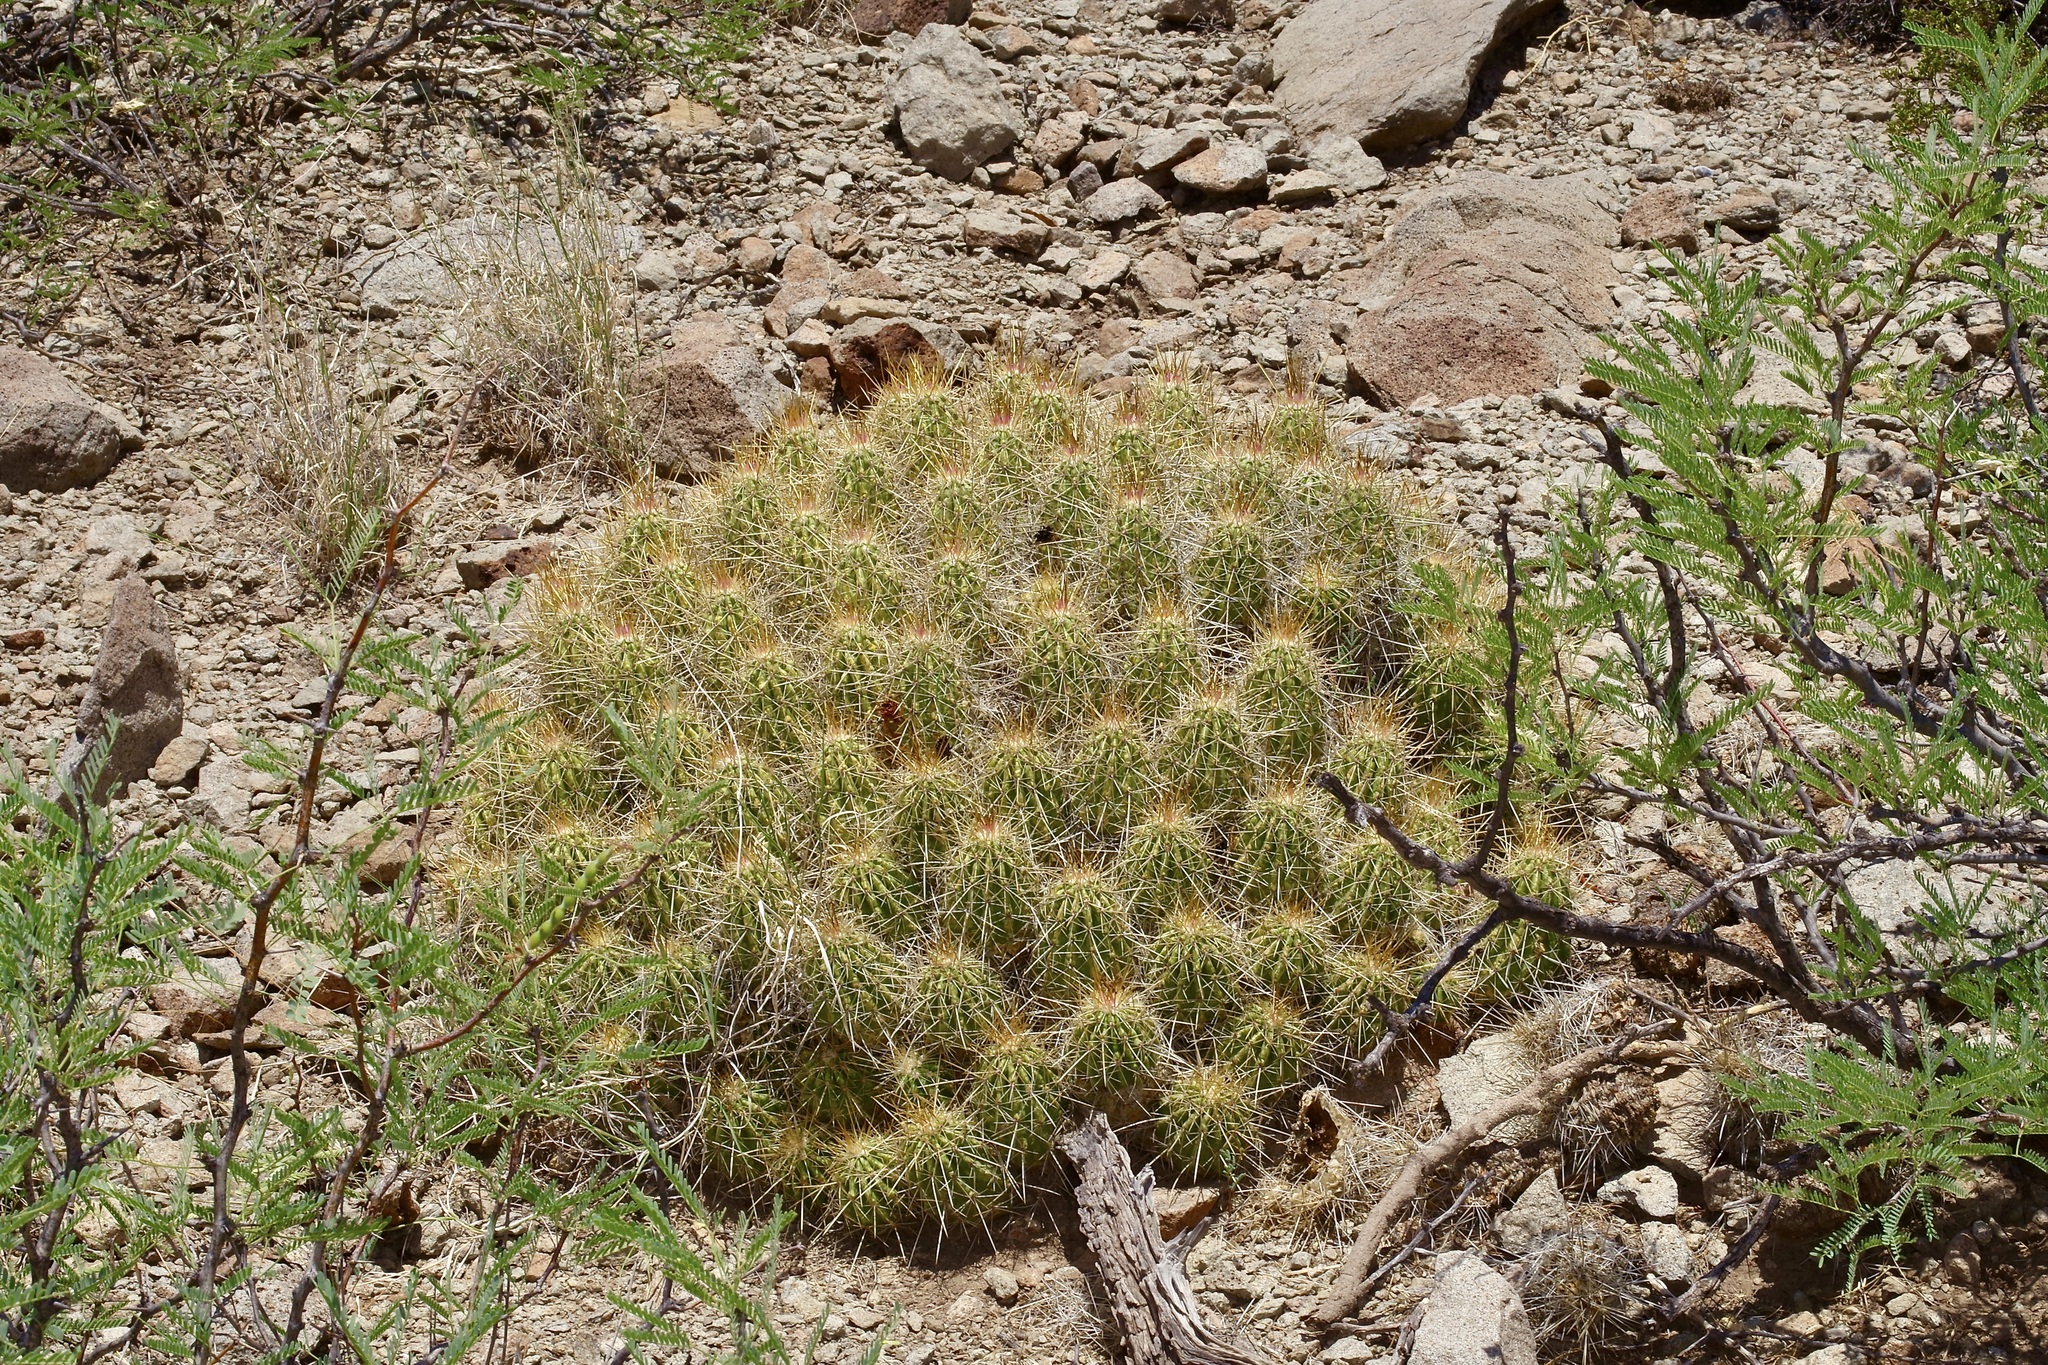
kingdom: Plantae
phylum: Tracheophyta
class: Magnoliopsida
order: Caryophyllales
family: Cactaceae
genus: Echinocereus
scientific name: Echinocereus stramineus
